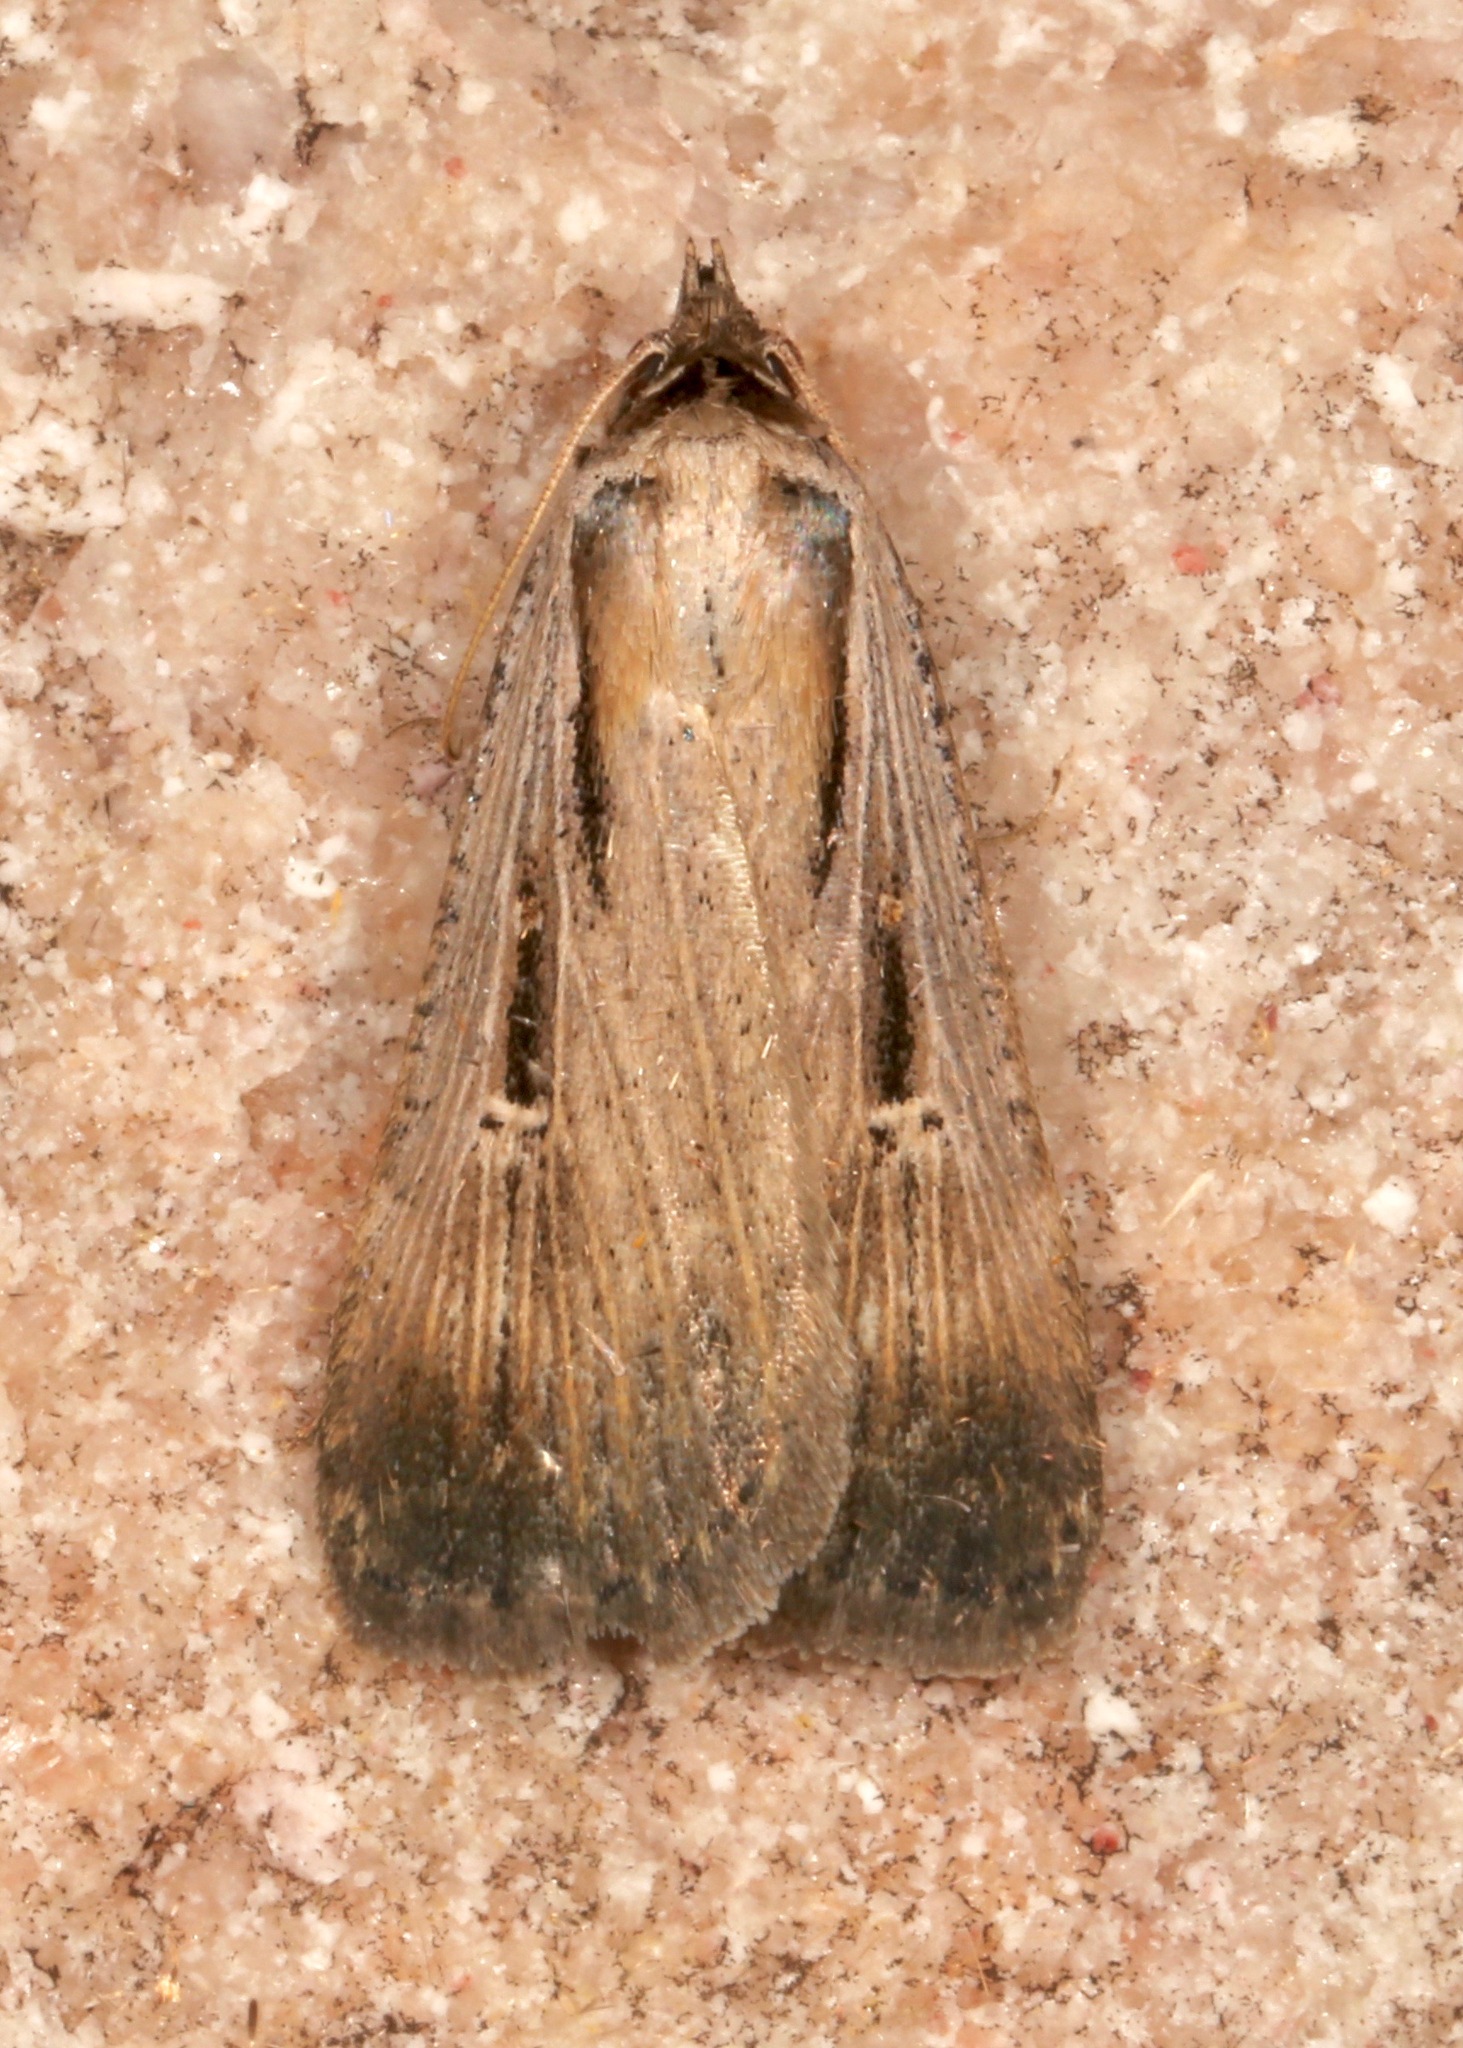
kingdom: Animalia
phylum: Arthropoda
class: Insecta
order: Lepidoptera
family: Noctuidae
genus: Tathorhynchus
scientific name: Tathorhynchus exsiccata
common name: Levant blackneck moth
